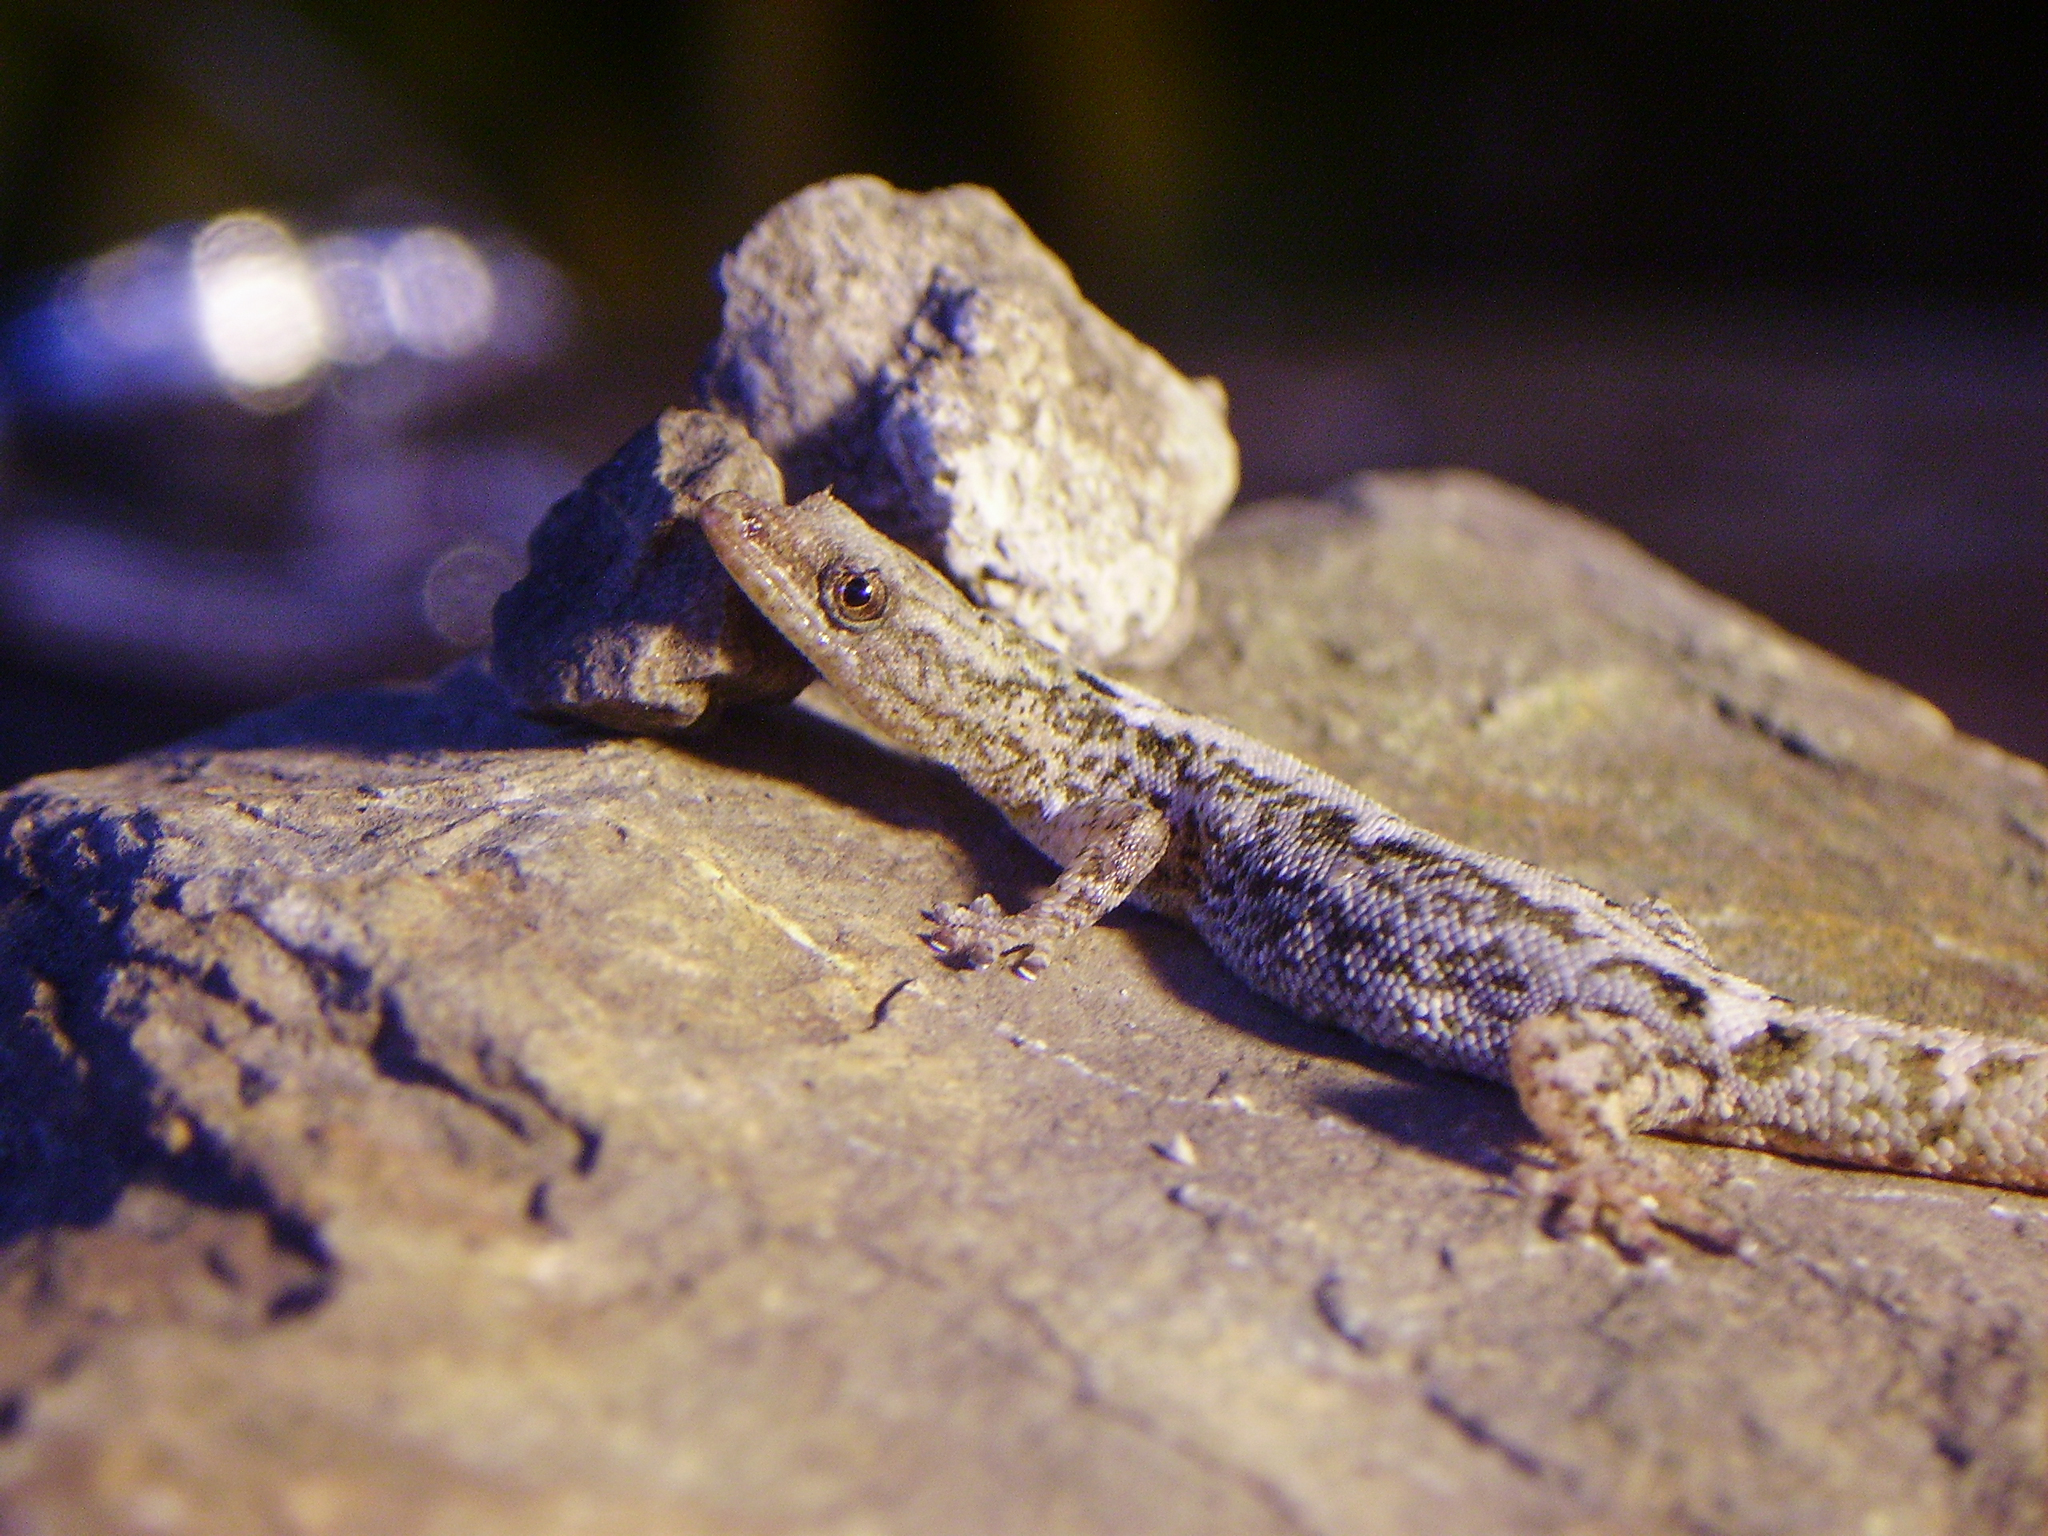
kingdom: Animalia
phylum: Chordata
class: Squamata
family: Sphaerodactylidae
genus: Sphaerodactylus
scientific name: Sphaerodactylus glaucus
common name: Central american collared geckolet
